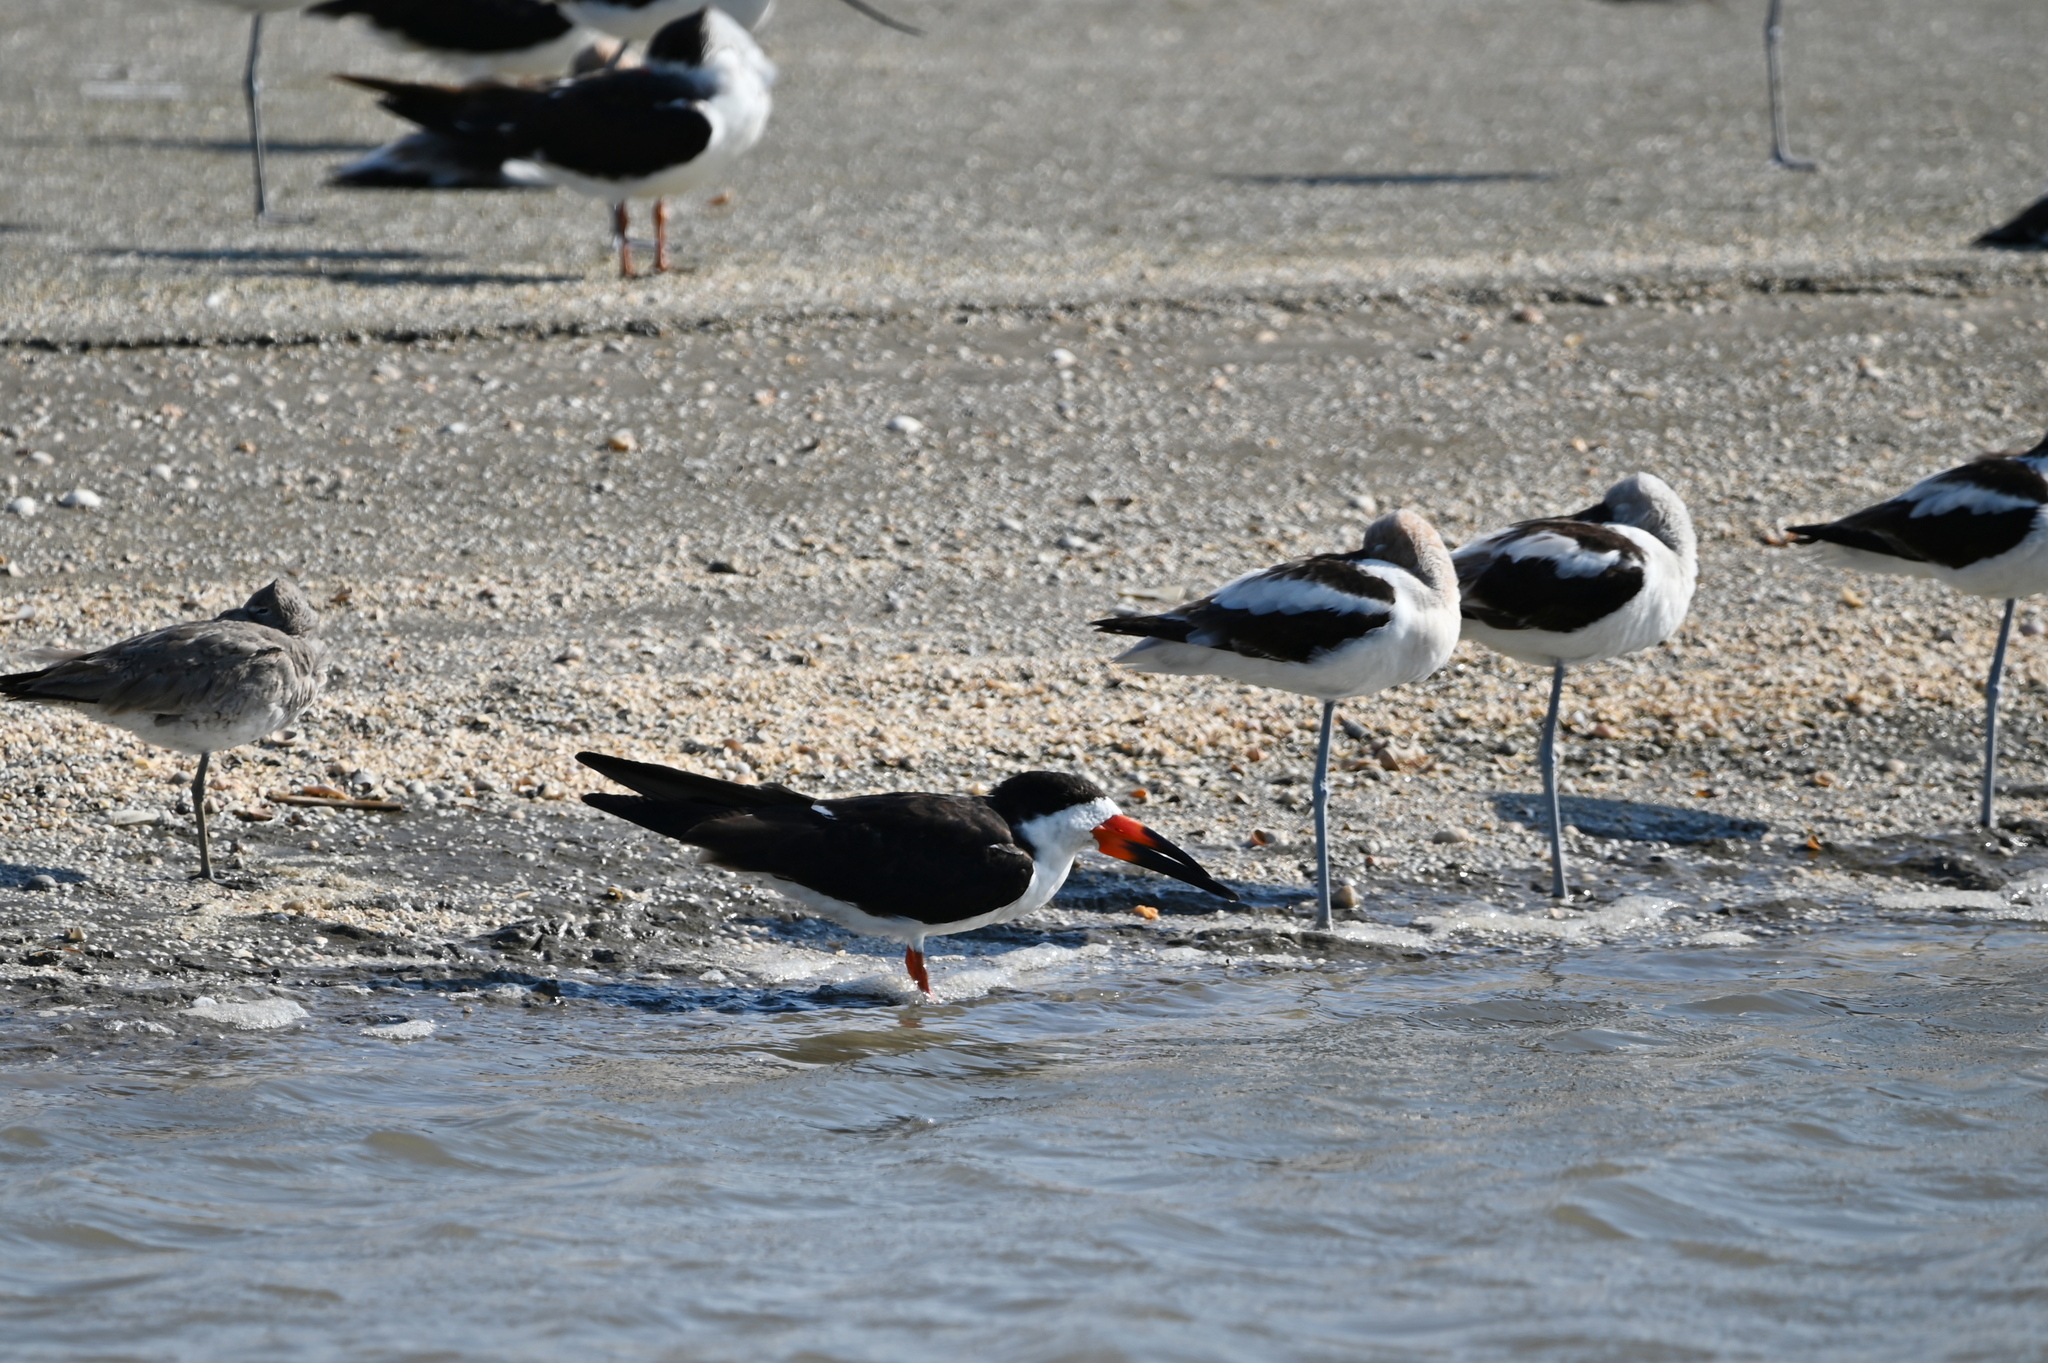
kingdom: Animalia
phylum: Chordata
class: Aves
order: Charadriiformes
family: Laridae
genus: Rynchops
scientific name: Rynchops niger
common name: Black skimmer
